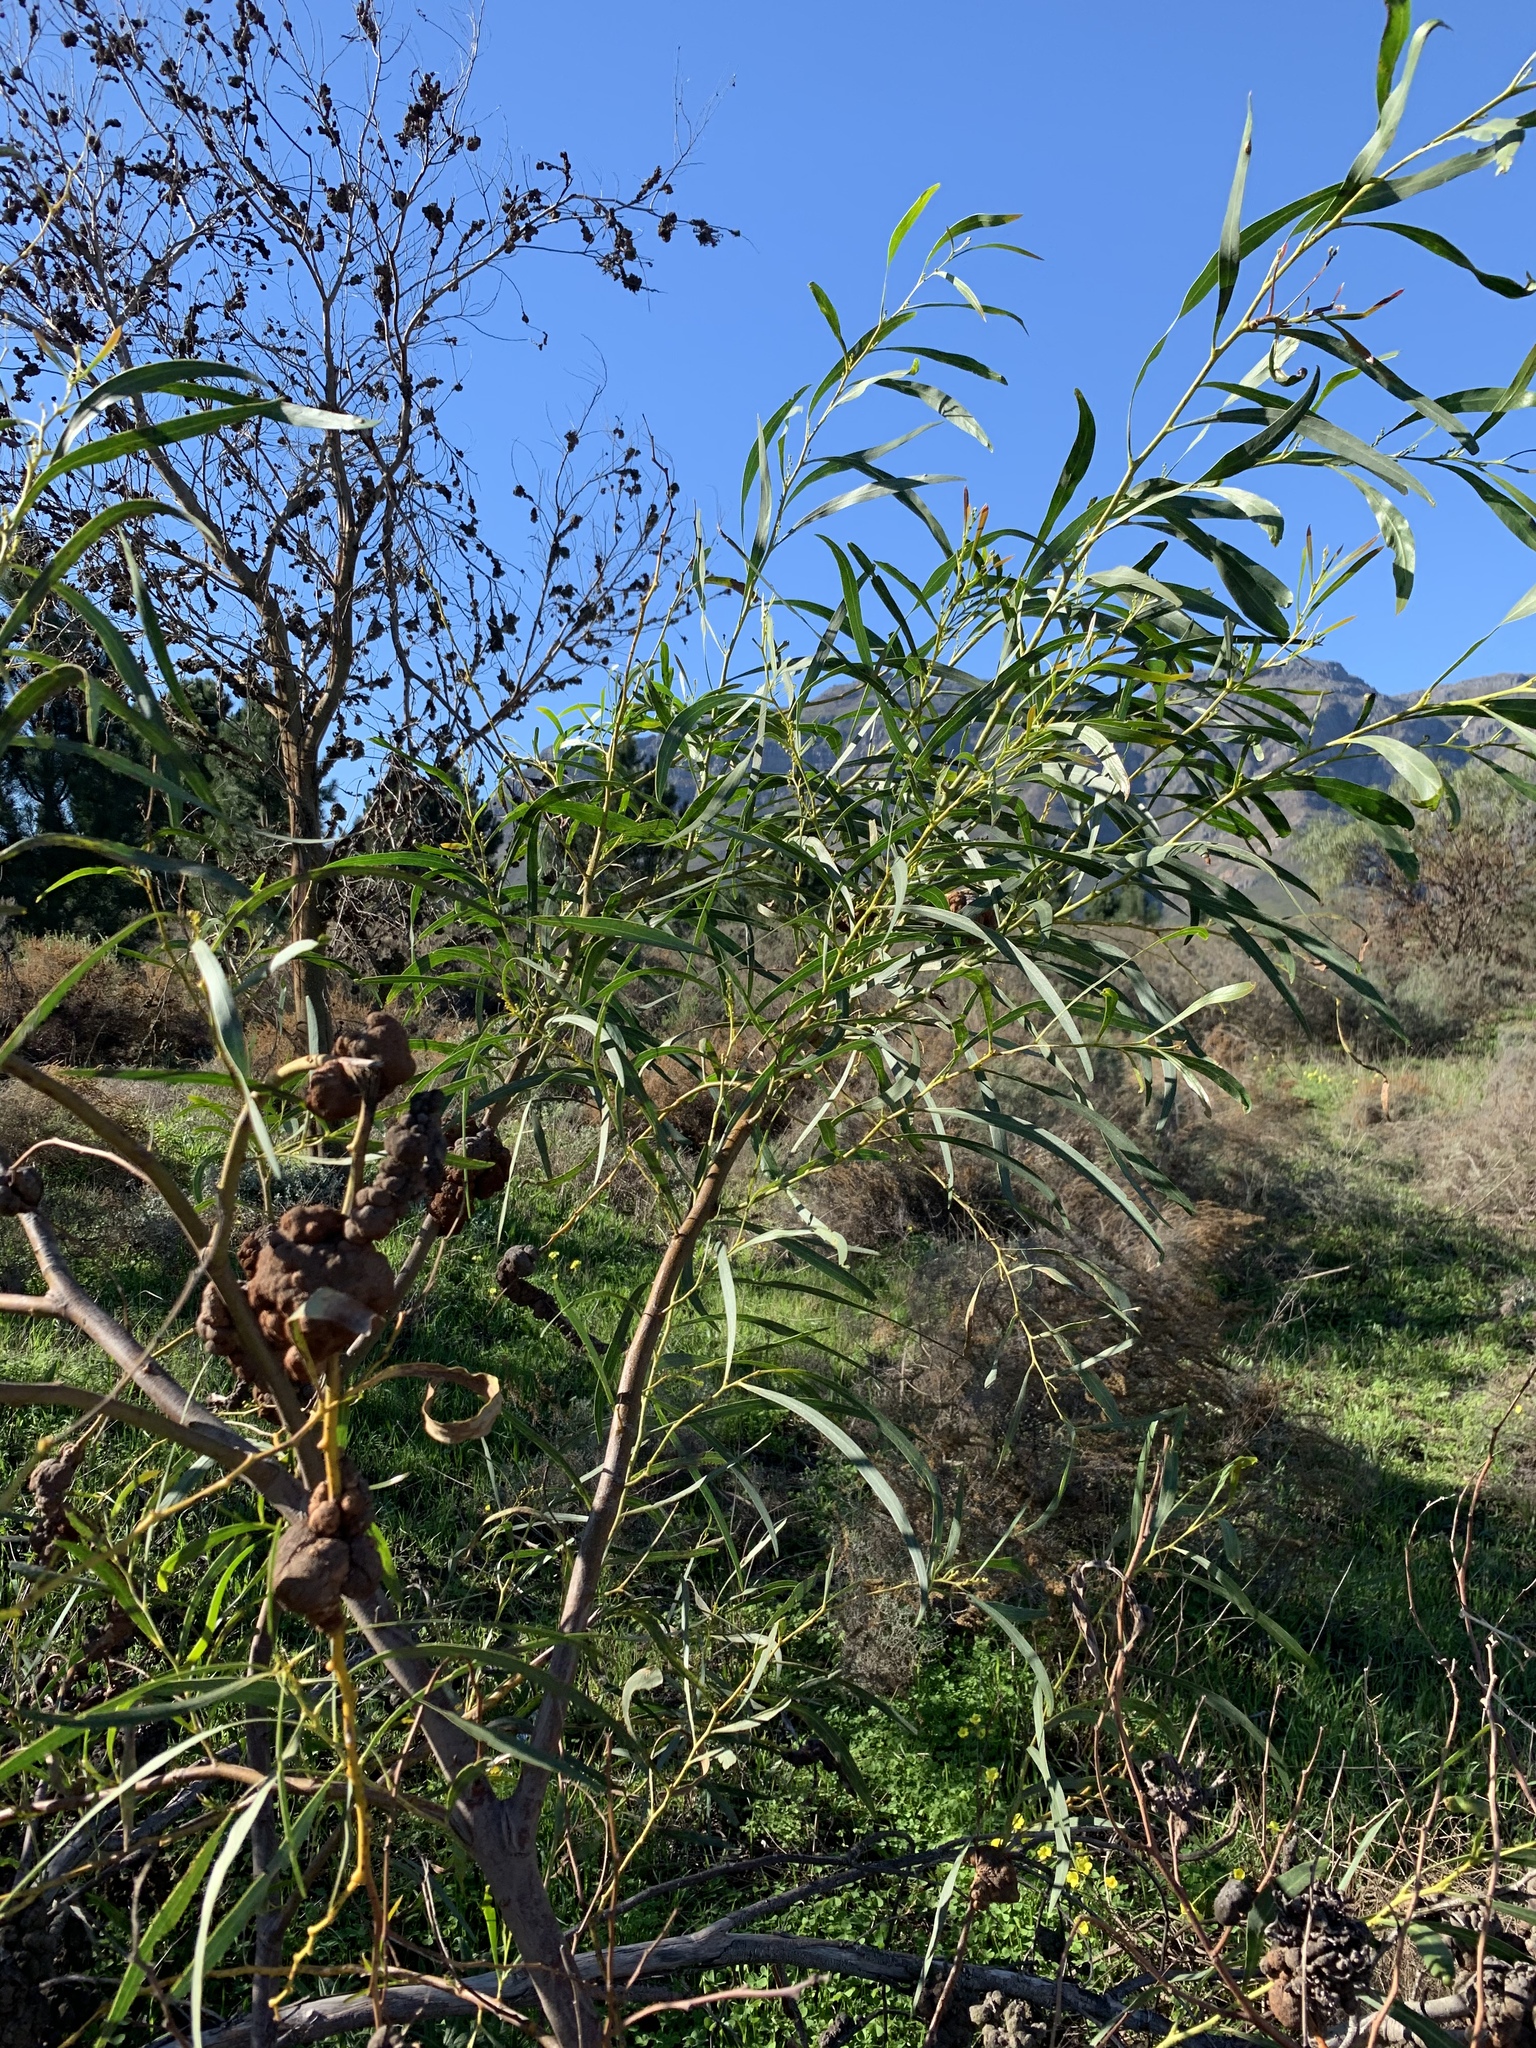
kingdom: Plantae
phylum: Tracheophyta
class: Magnoliopsida
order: Fabales
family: Fabaceae
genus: Acacia
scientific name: Acacia saligna
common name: Orange wattle
